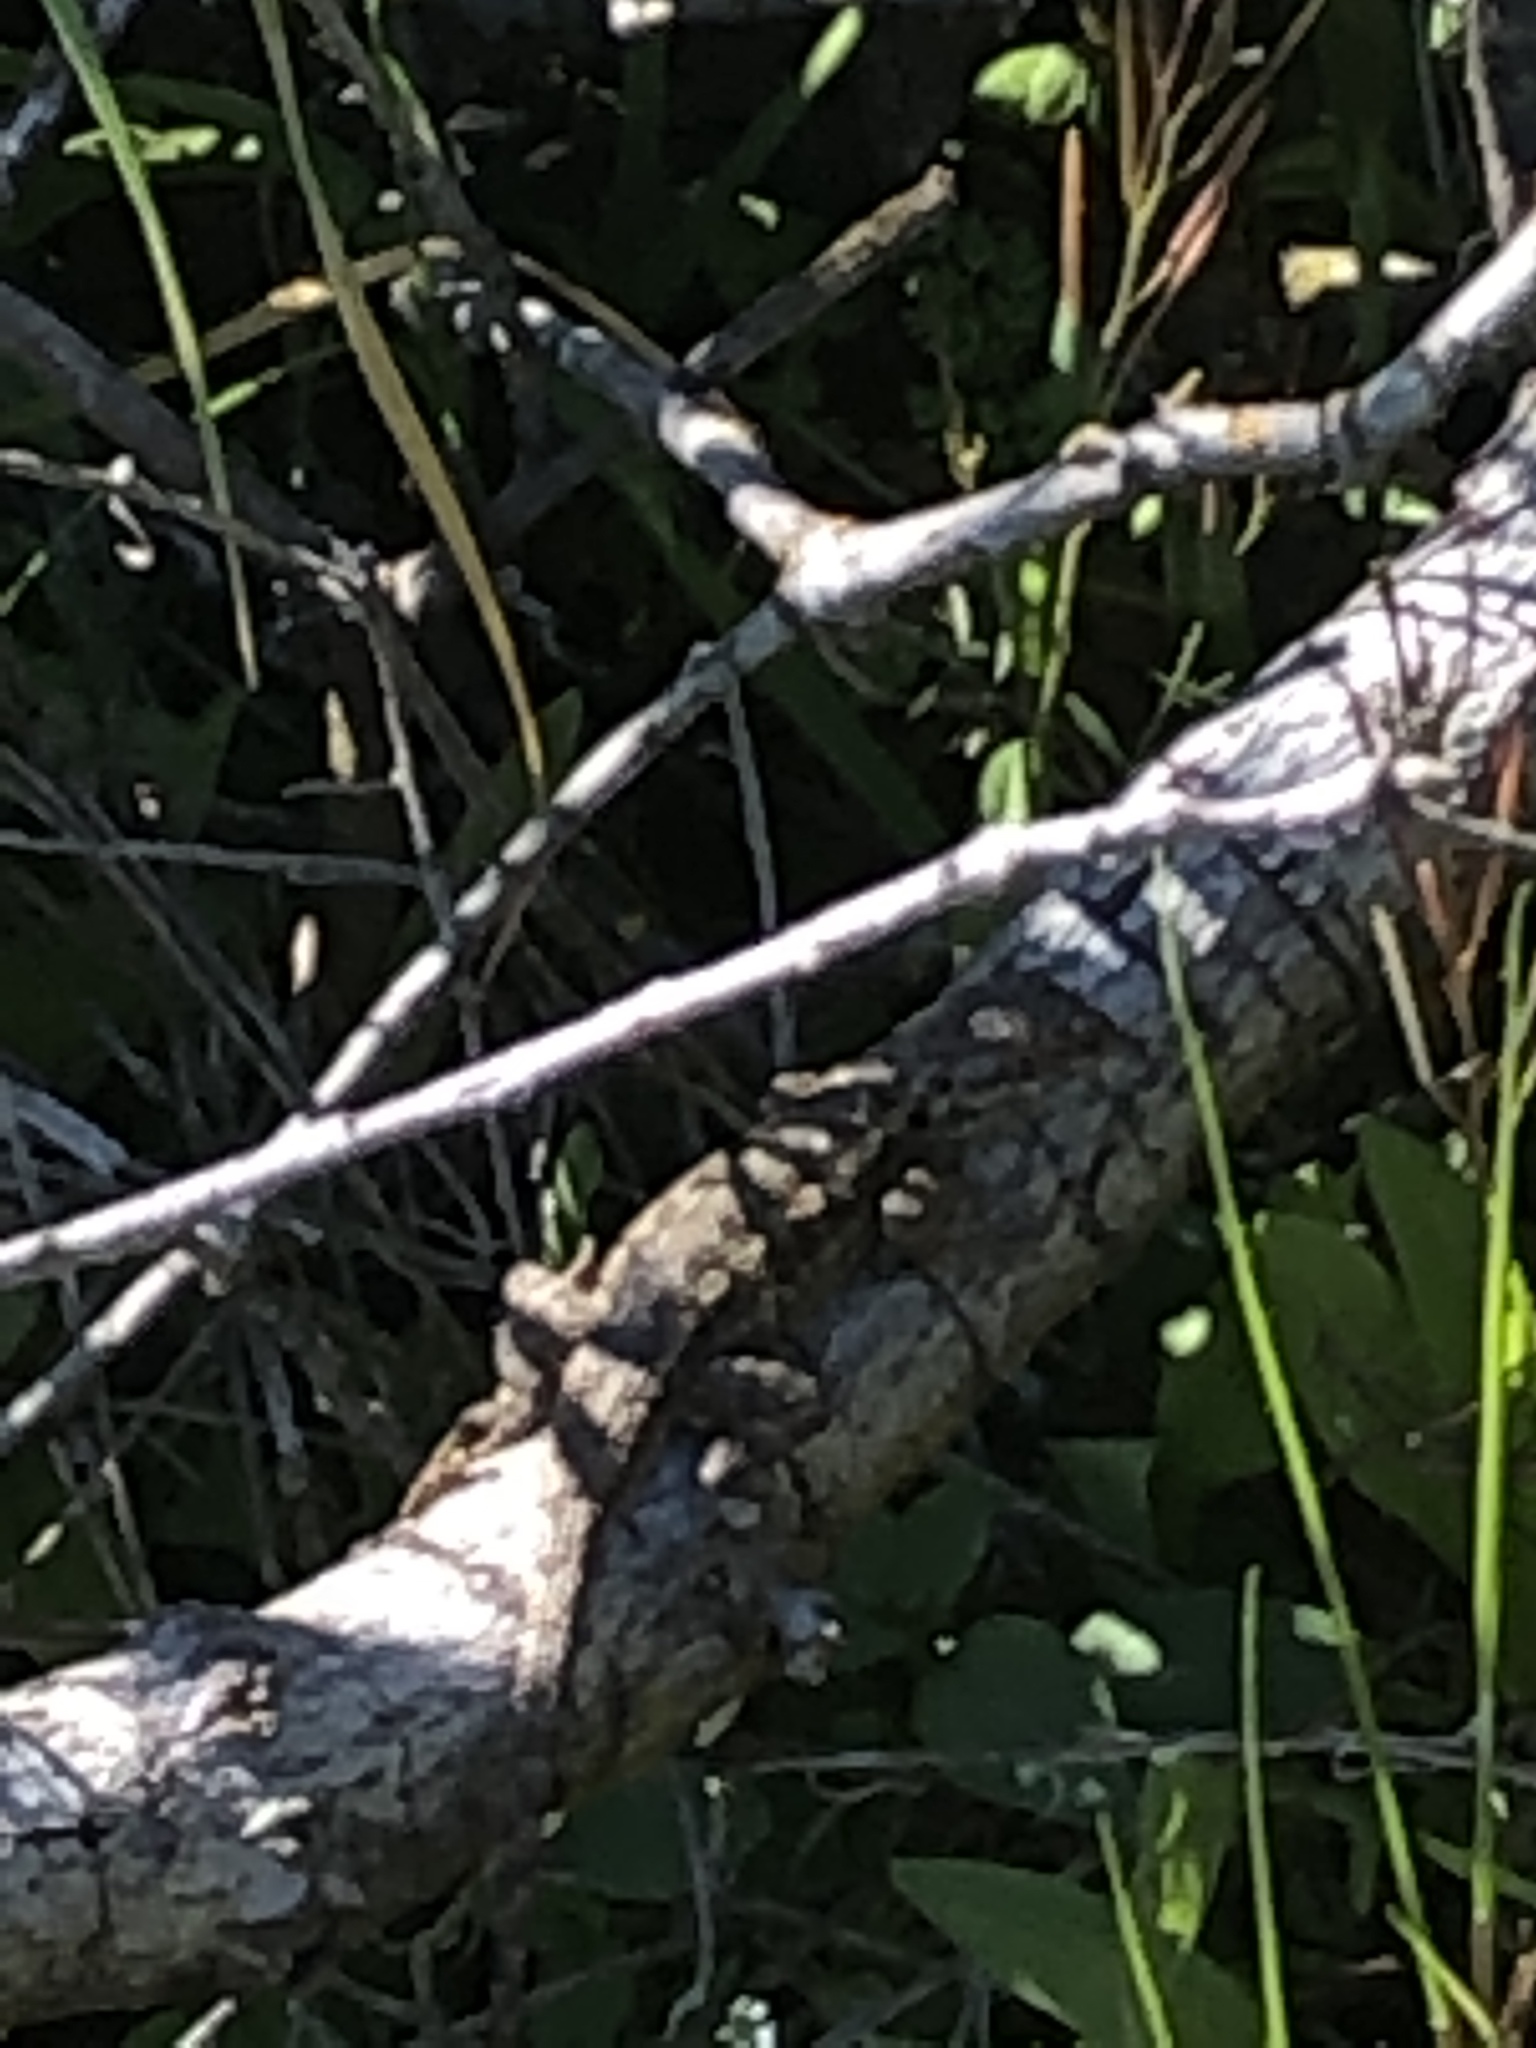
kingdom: Animalia
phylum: Chordata
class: Squamata
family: Phrynosomatidae
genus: Sceloporus
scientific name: Sceloporus occidentalis
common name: Western fence lizard
